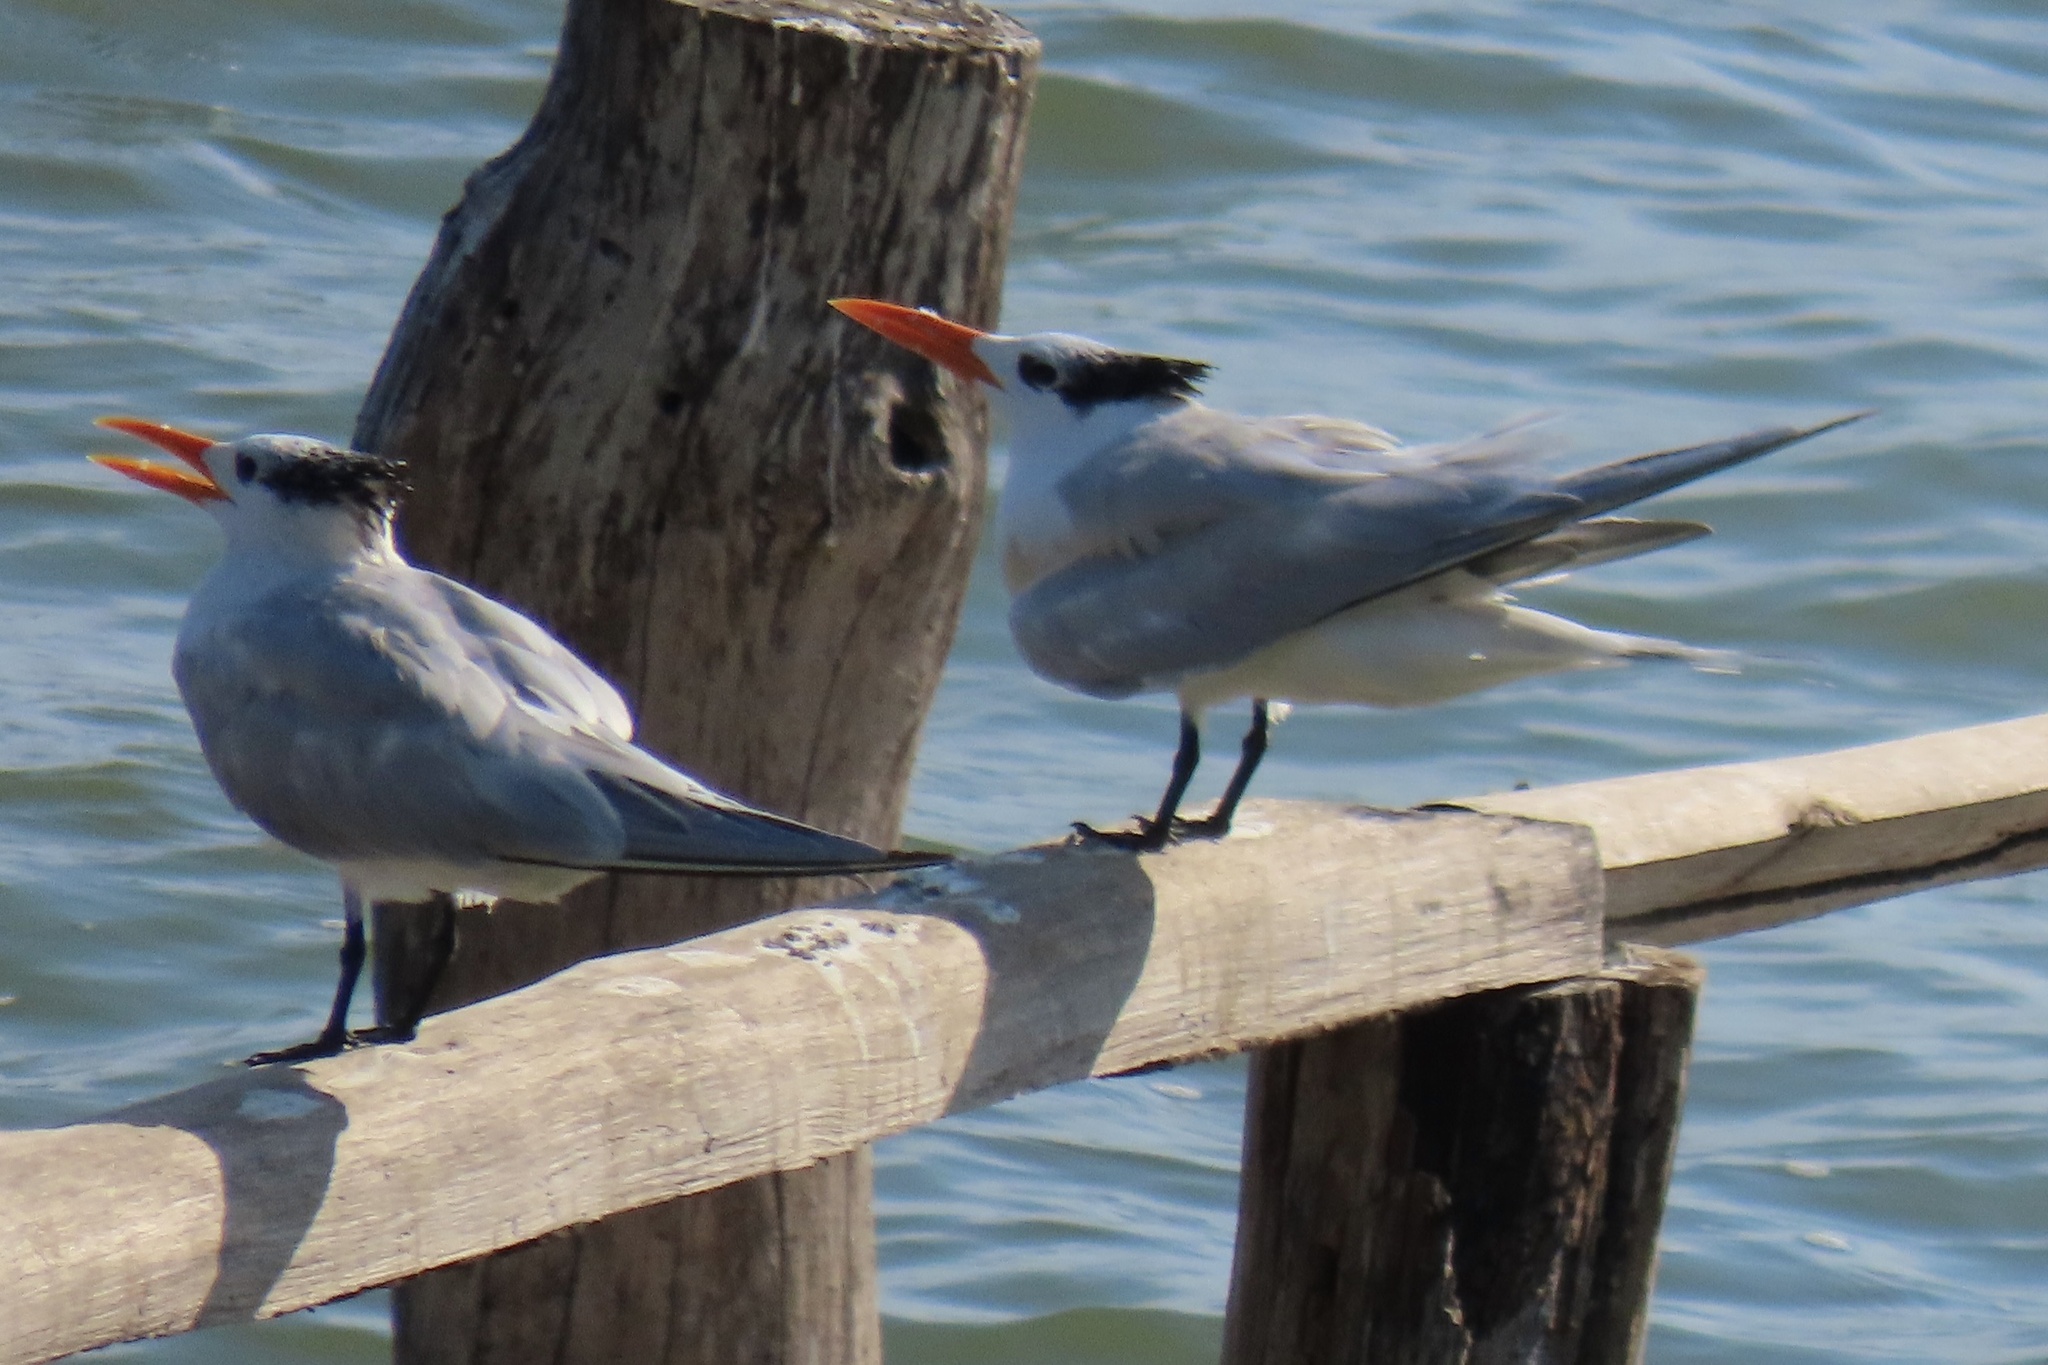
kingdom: Animalia
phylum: Chordata
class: Aves
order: Charadriiformes
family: Laridae
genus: Thalasseus
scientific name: Thalasseus maximus
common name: Royal tern
